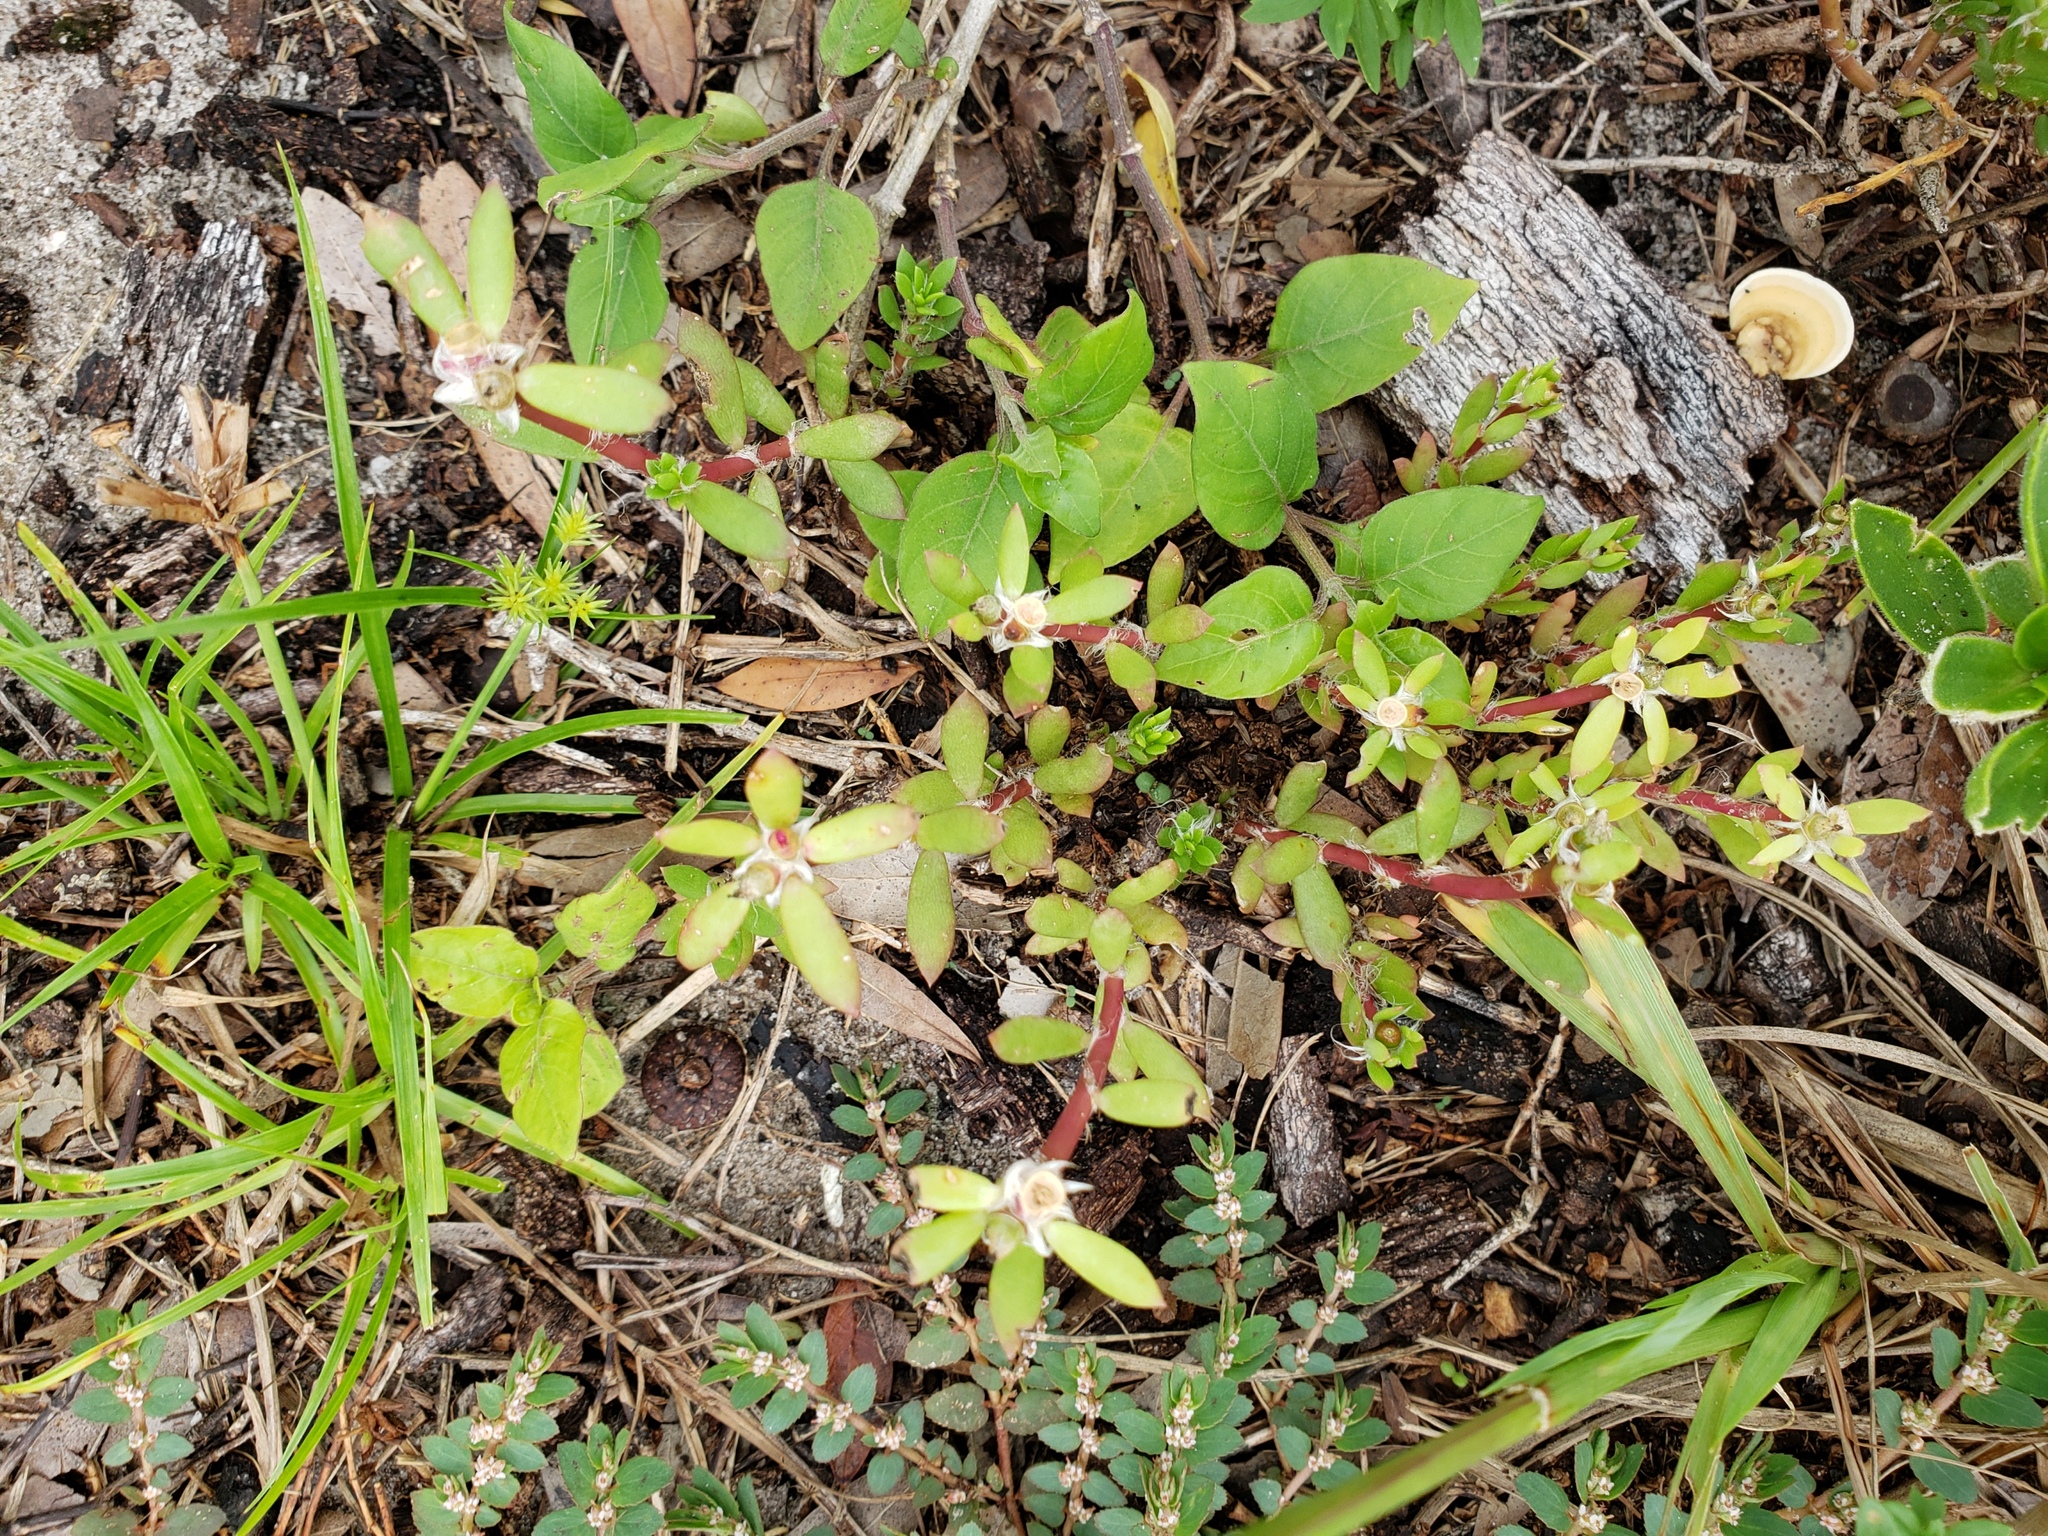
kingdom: Plantae
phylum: Tracheophyta
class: Magnoliopsida
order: Caryophyllales
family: Portulacaceae
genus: Portulaca
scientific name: Portulaca amilis
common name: Paraguayan purslane
